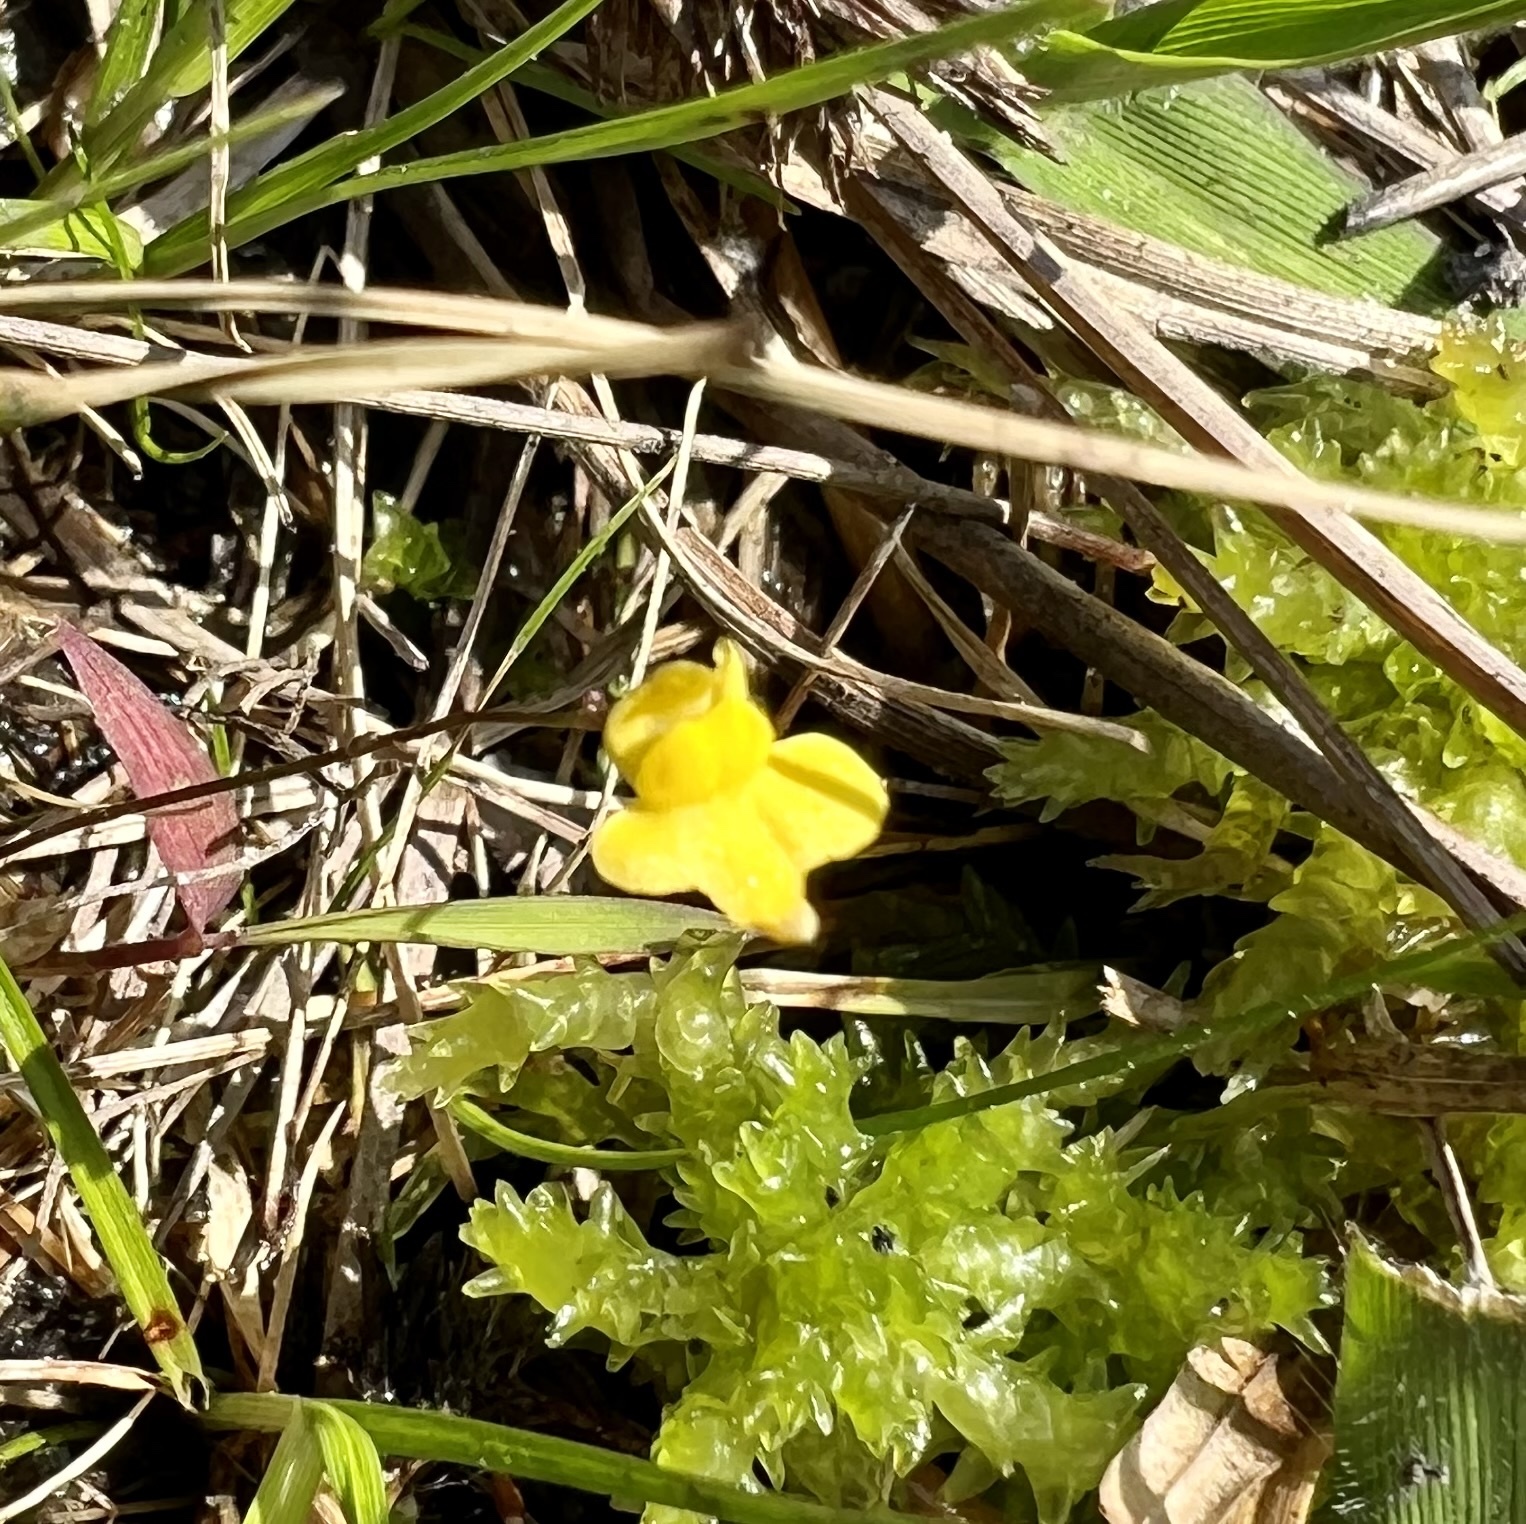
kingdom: Plantae
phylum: Tracheophyta
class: Magnoliopsida
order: Lamiales
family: Lentibulariaceae
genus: Utricularia
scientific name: Utricularia subulata
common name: Tiny bladderwort
